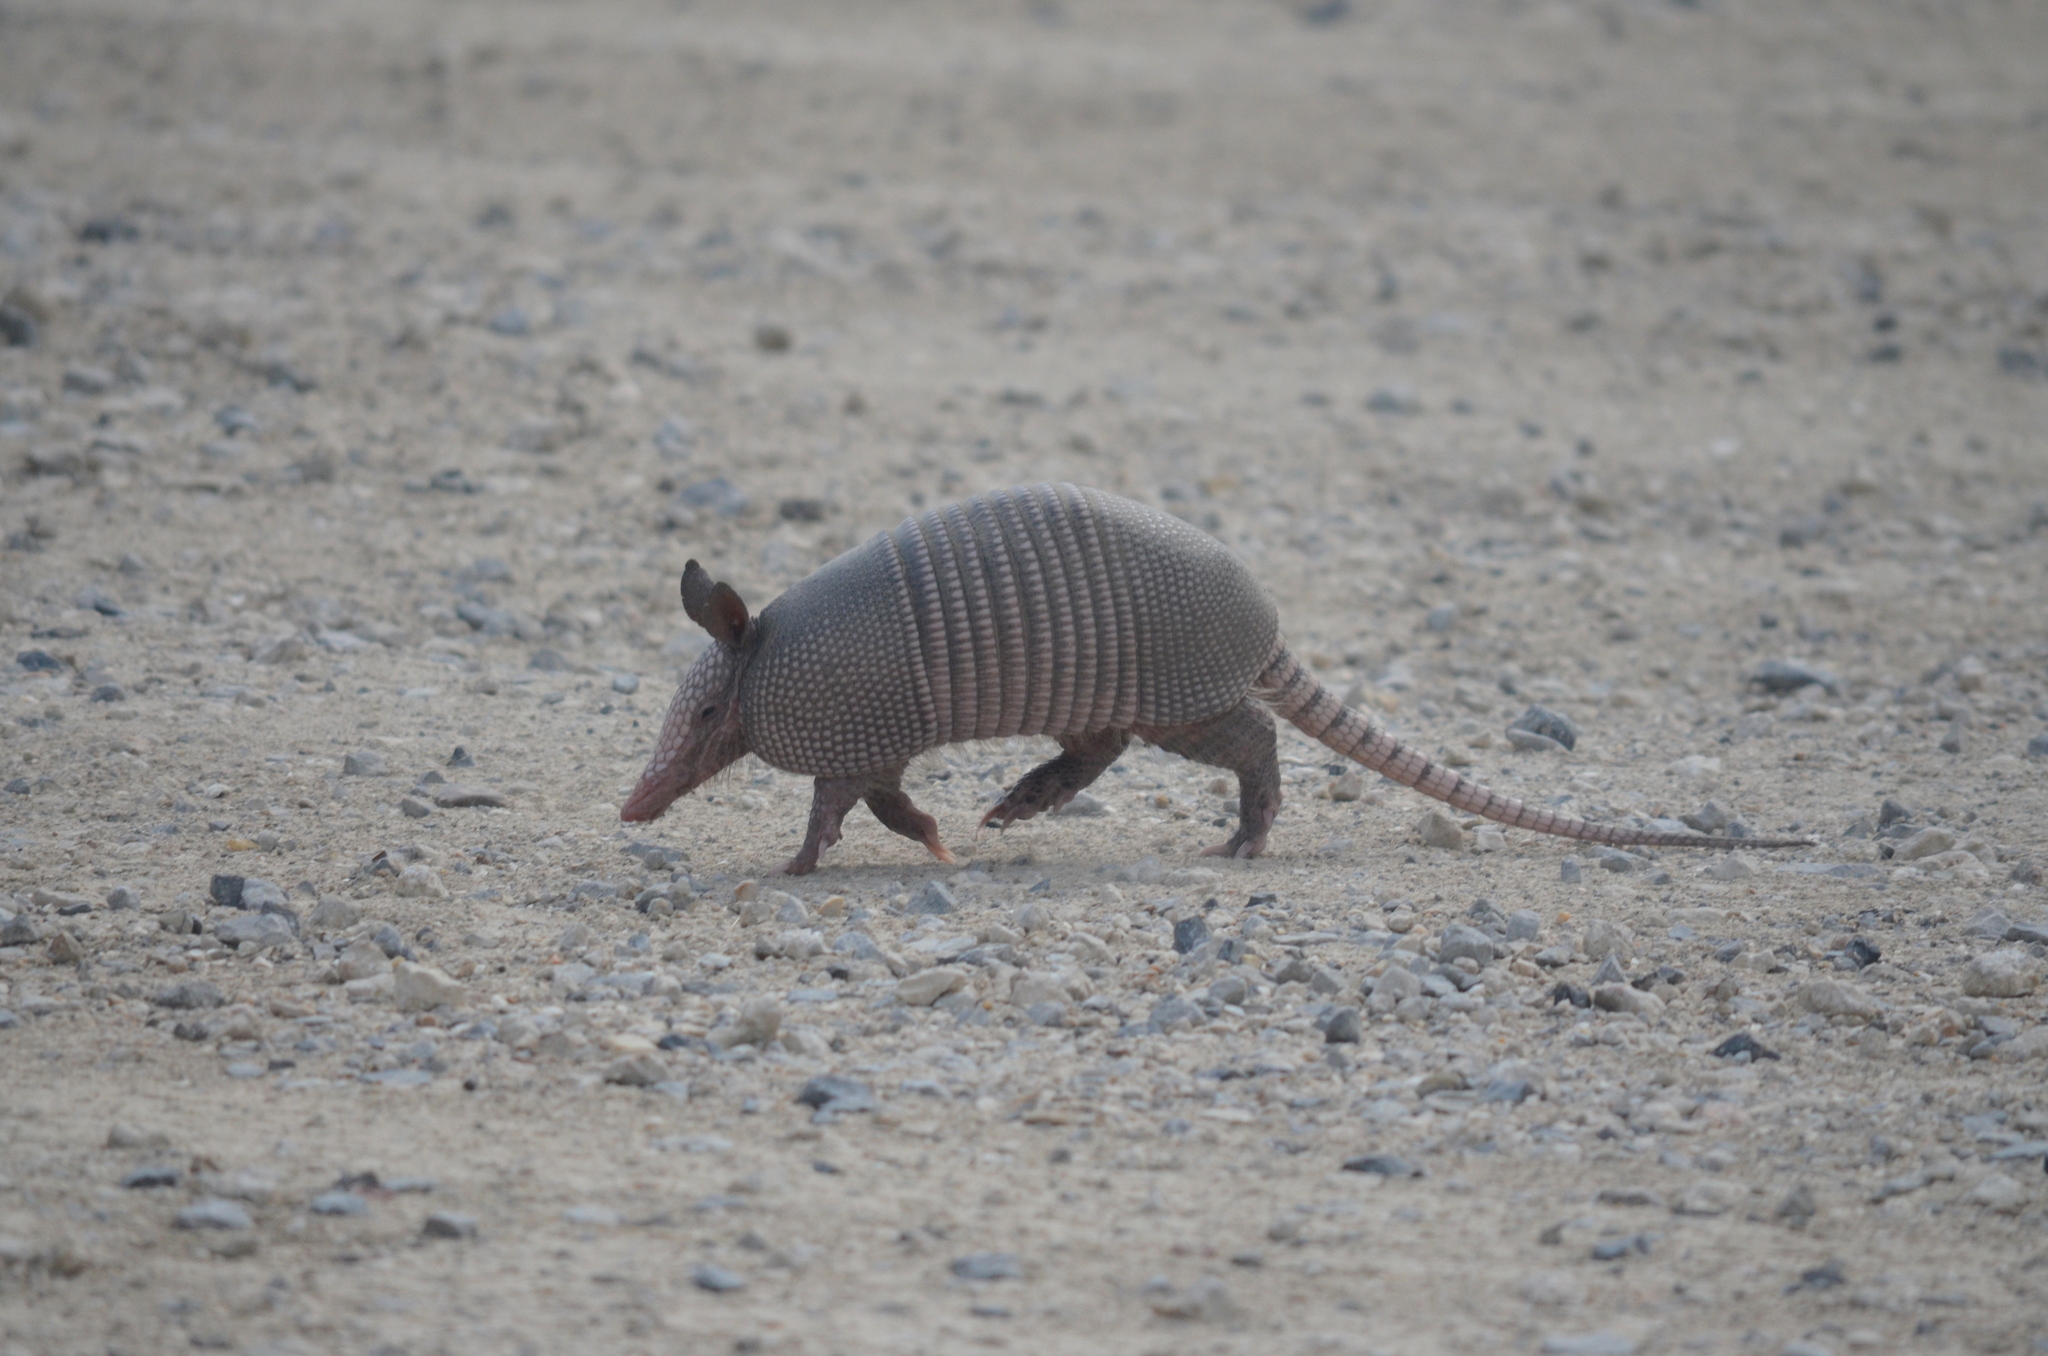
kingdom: Animalia
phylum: Chordata
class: Mammalia
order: Cingulata
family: Dasypodidae
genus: Dasypus
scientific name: Dasypus novemcinctus
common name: Nine-banded armadillo
